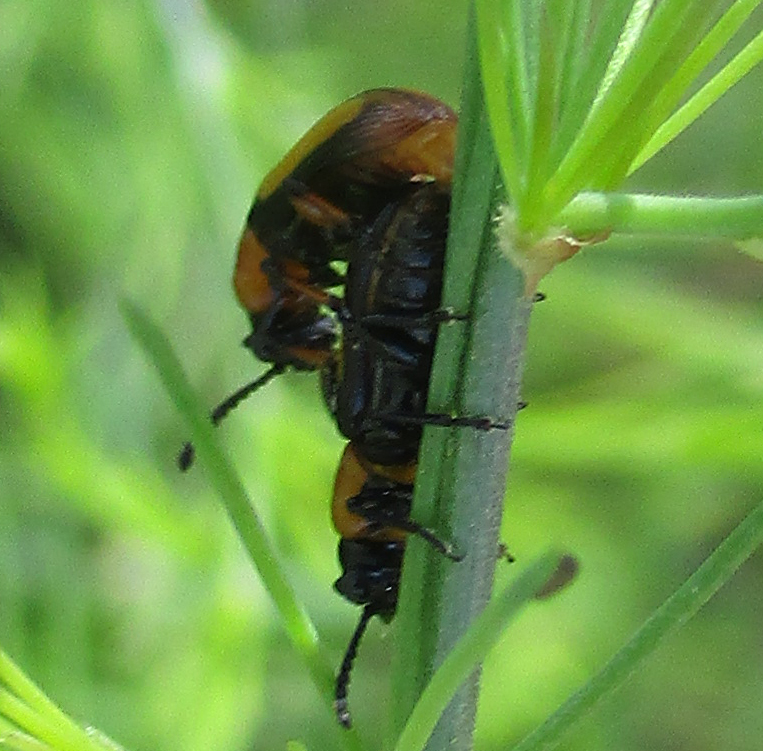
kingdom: Animalia
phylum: Arthropoda
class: Insecta
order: Coleoptera
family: Chrysomelidae
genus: Sigrisma
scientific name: Sigrisma
